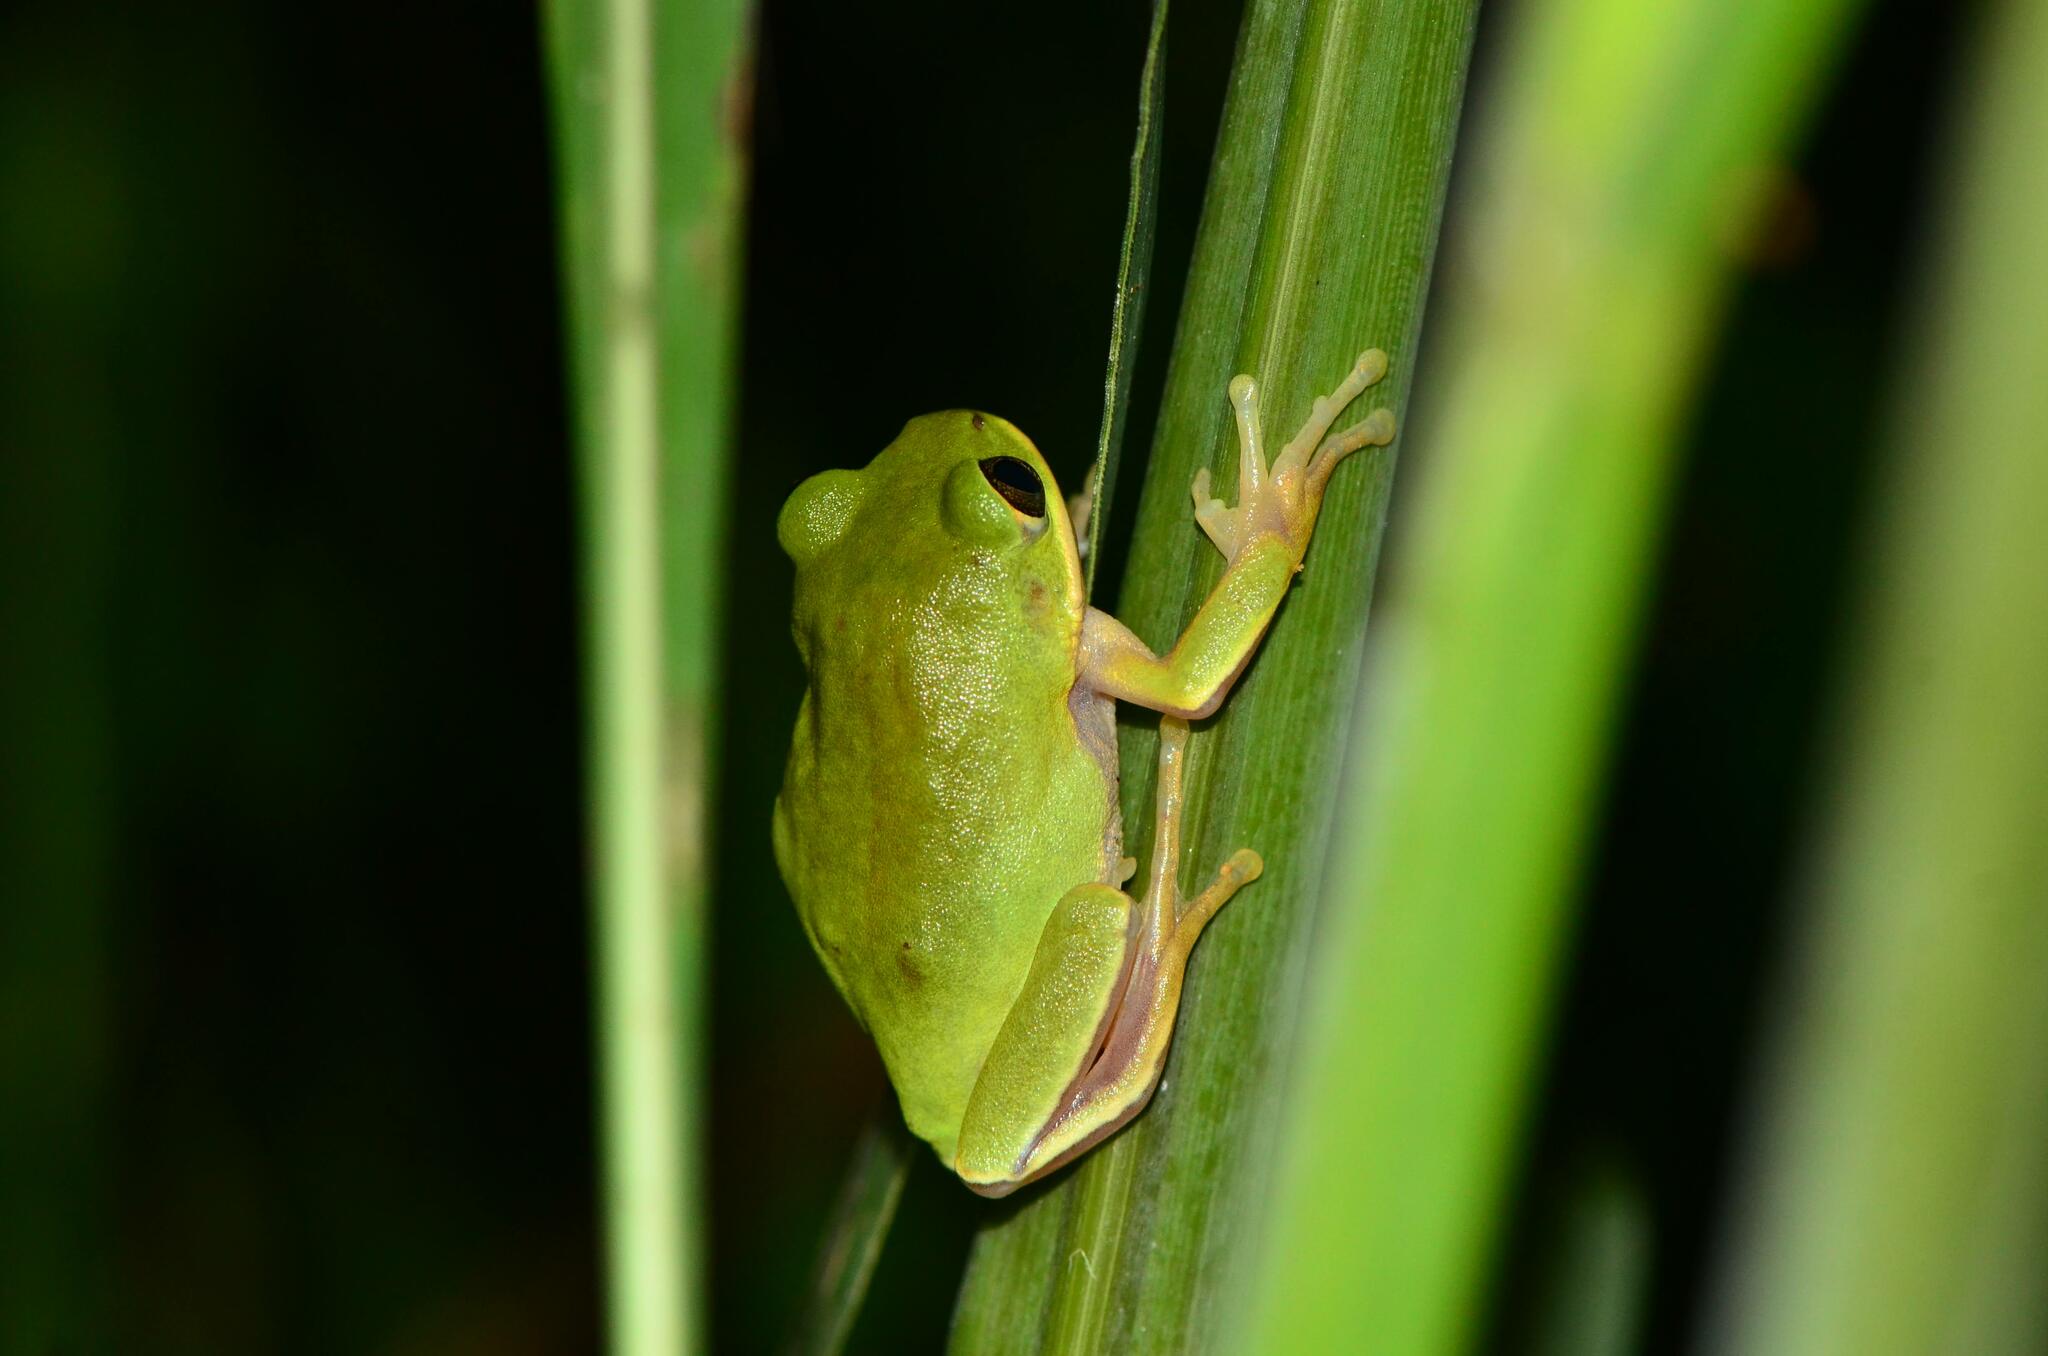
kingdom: Animalia
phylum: Chordata
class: Amphibia
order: Anura
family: Arthroleptidae
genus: Leptopelis
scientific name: Leptopelis mossambicus
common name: Mozambique tree frog
